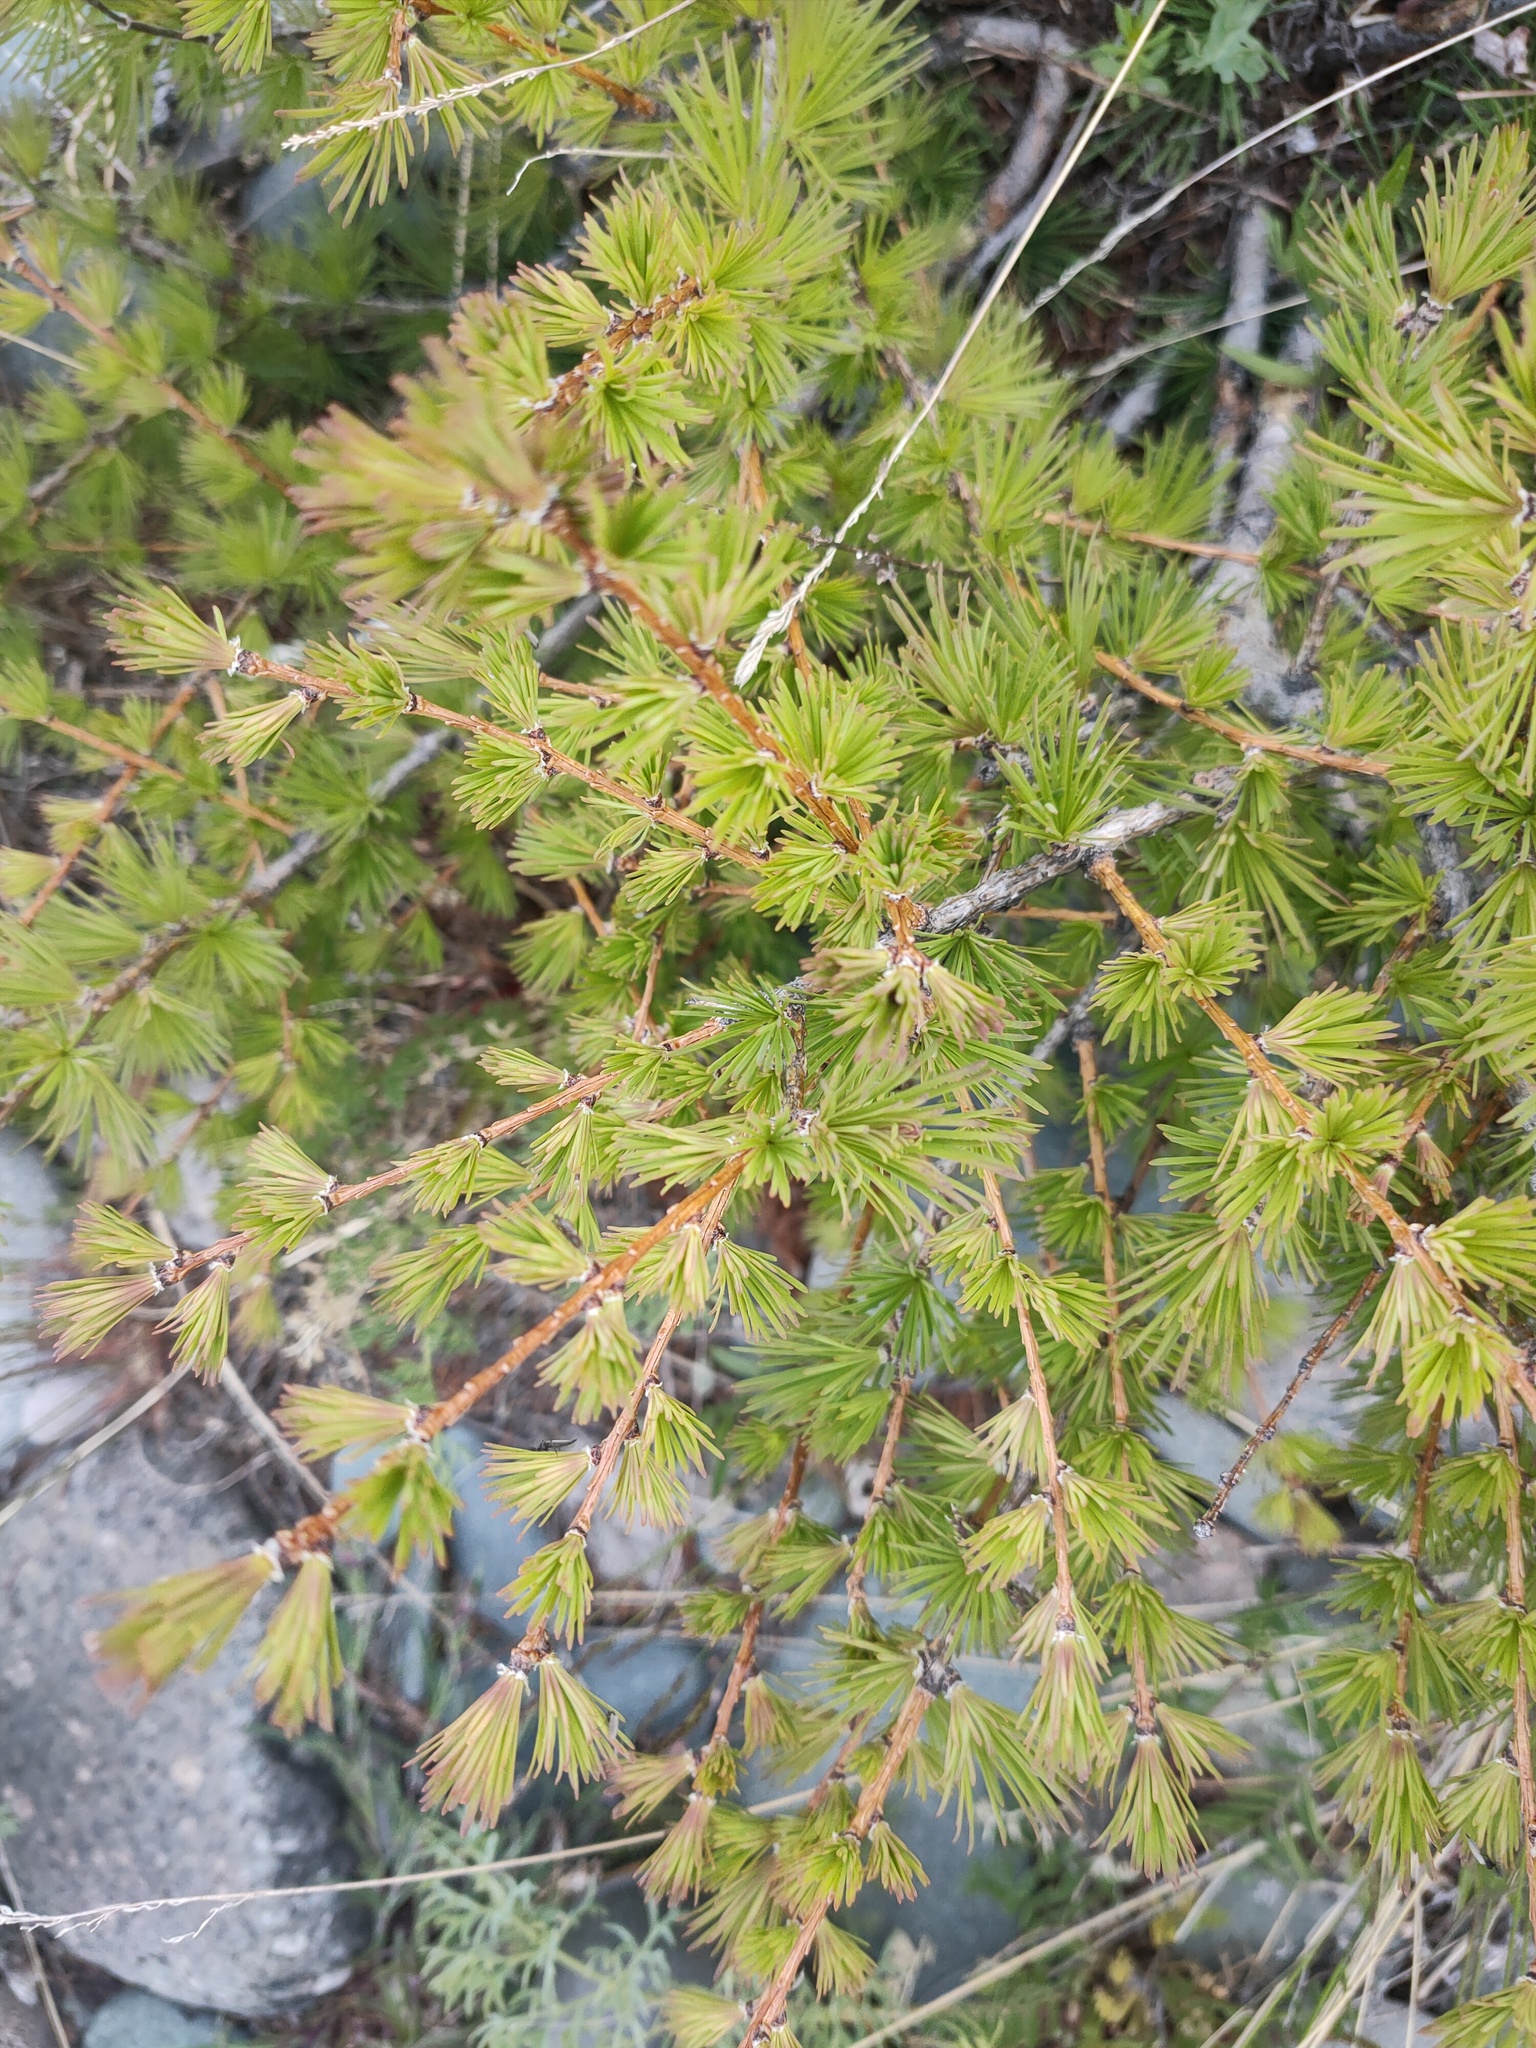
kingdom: Plantae
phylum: Tracheophyta
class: Pinopsida
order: Pinales
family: Pinaceae
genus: Larix
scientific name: Larix sibirica
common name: Siberian larch
